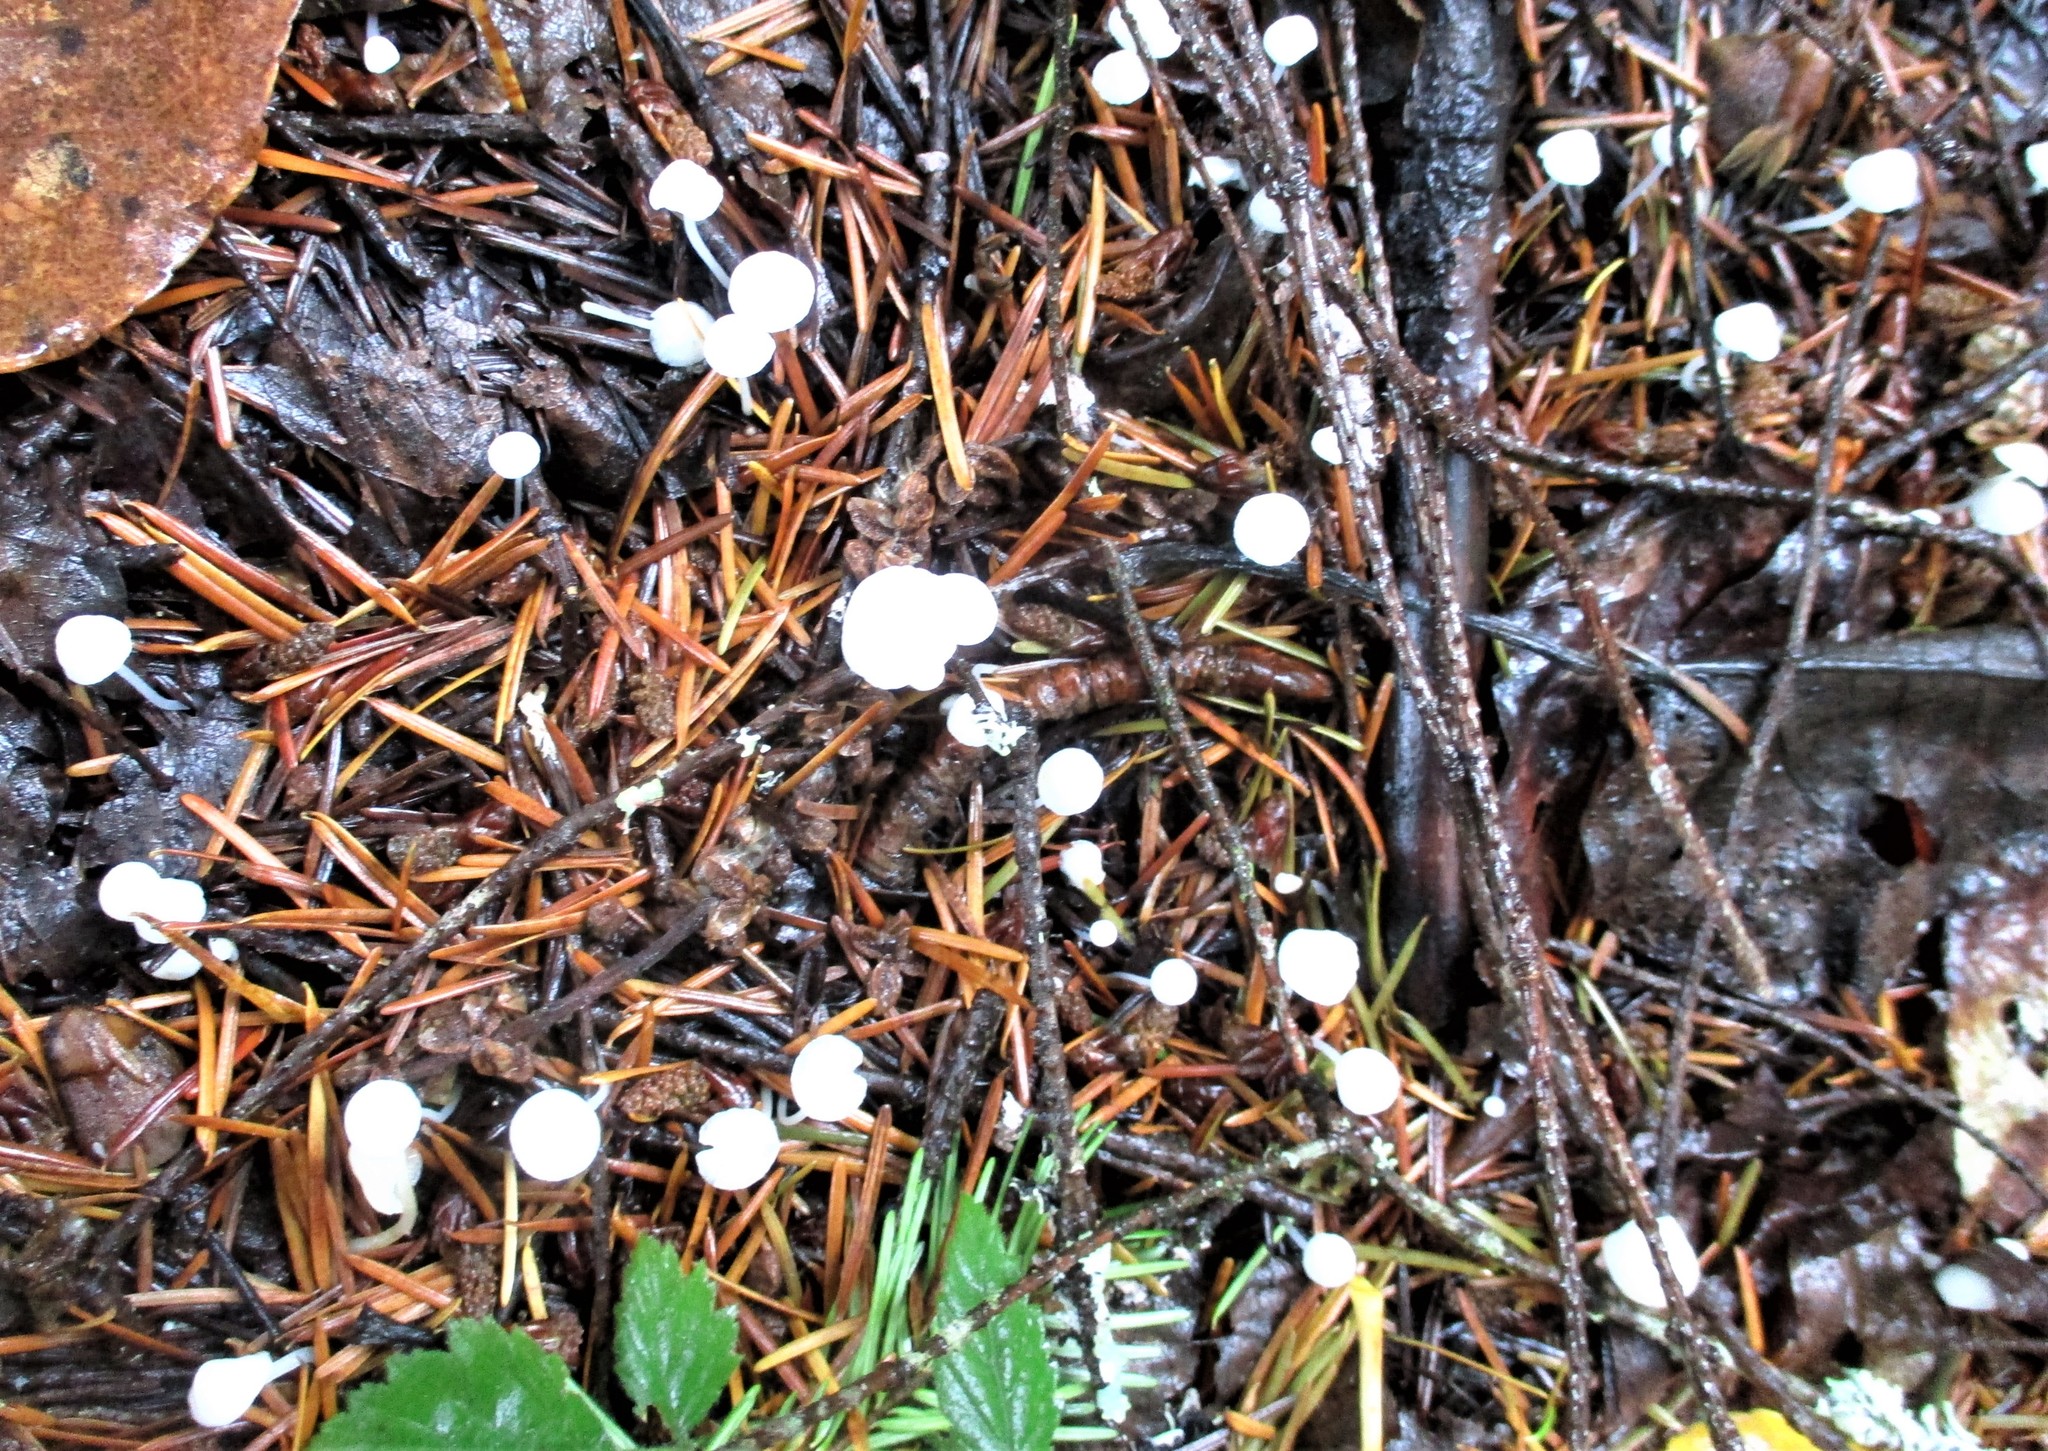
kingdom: Fungi
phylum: Basidiomycota
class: Agaricomycetes
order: Agaricales
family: Physalacriaceae
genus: Strobilurus
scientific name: Strobilurus trullisatus
